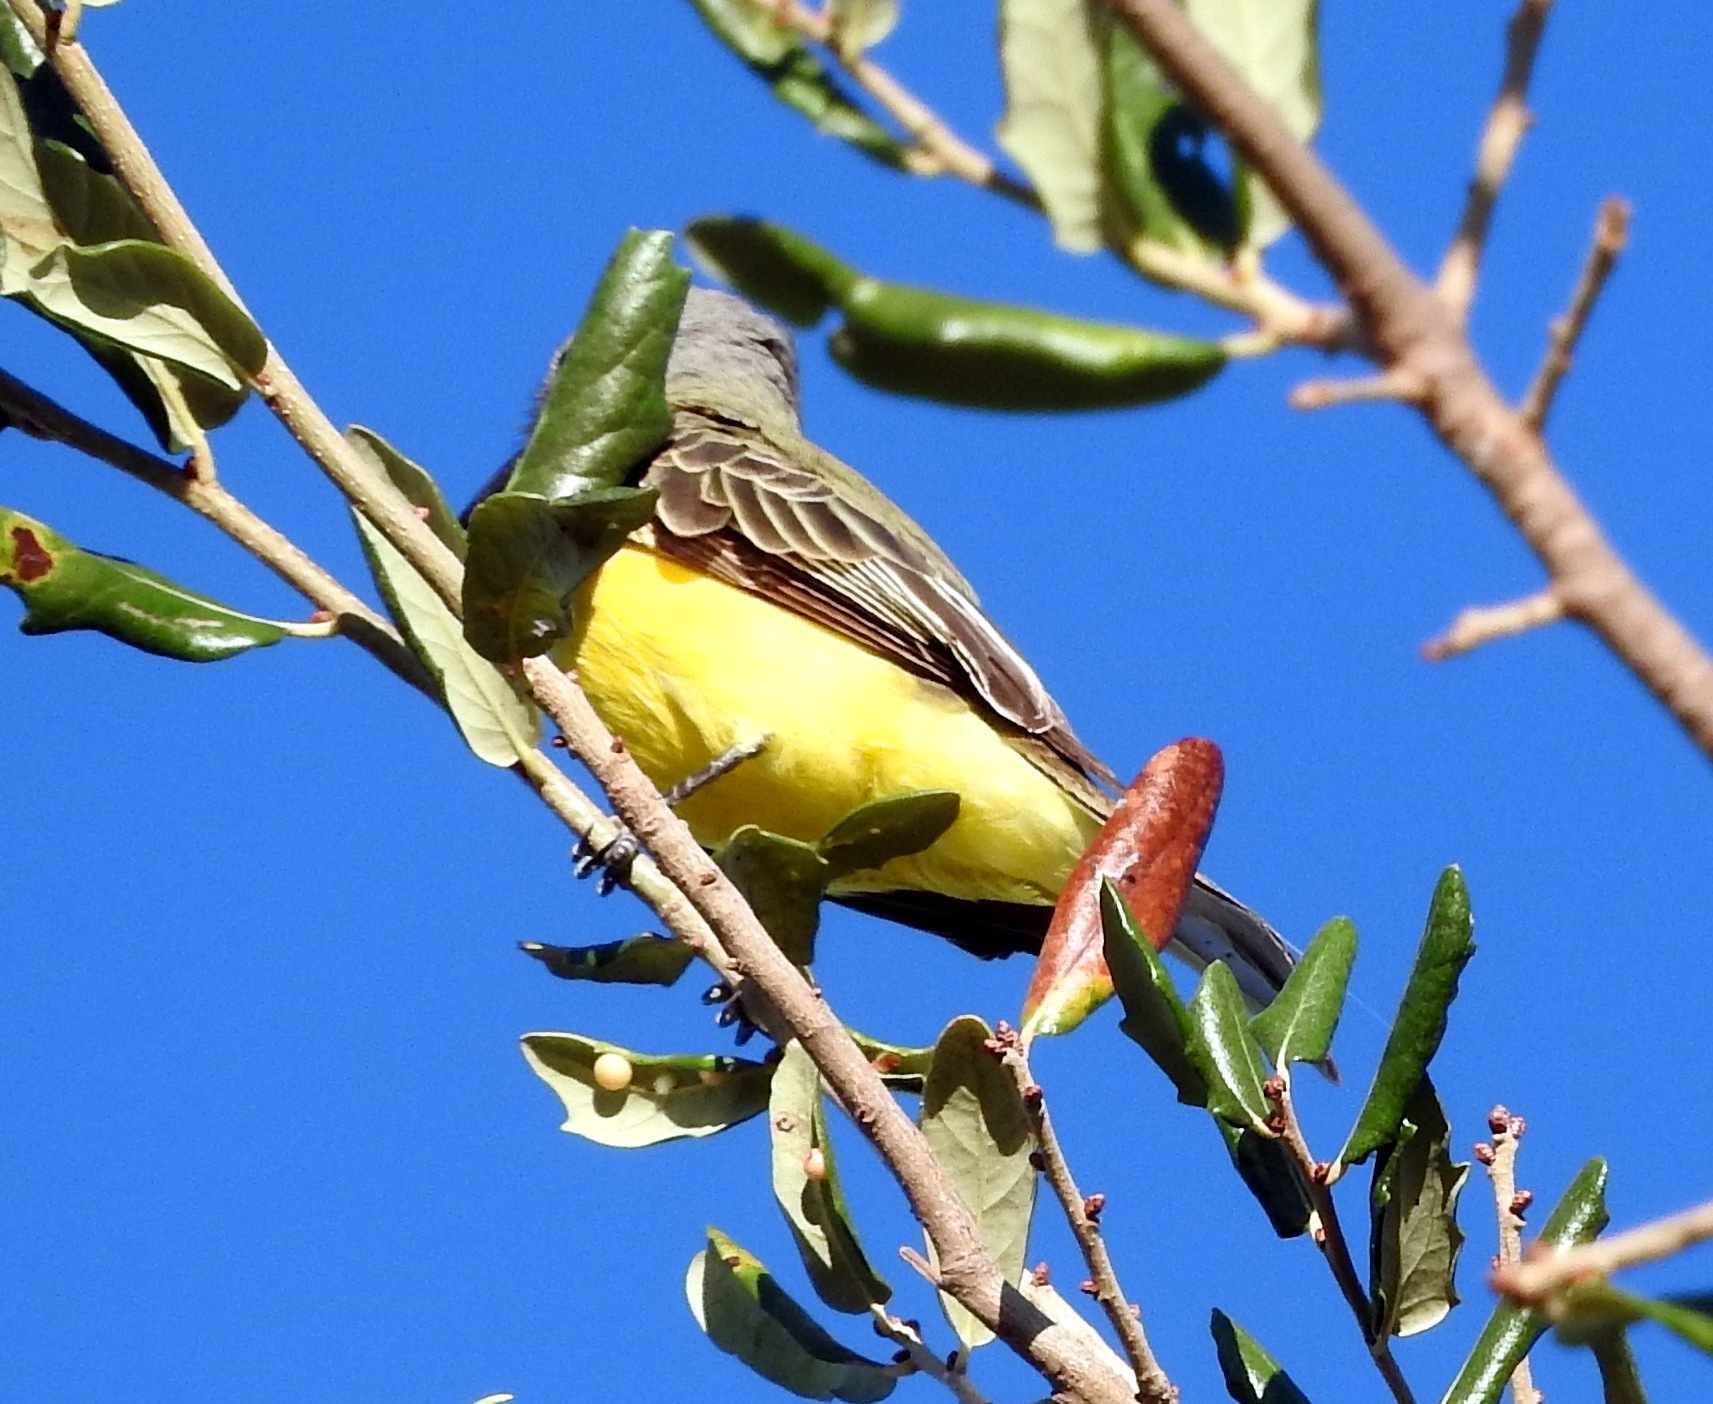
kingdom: Animalia
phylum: Chordata
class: Aves
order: Passeriformes
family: Tyrannidae
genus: Tyrannus
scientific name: Tyrannus couchii
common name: Couch's kingbird
